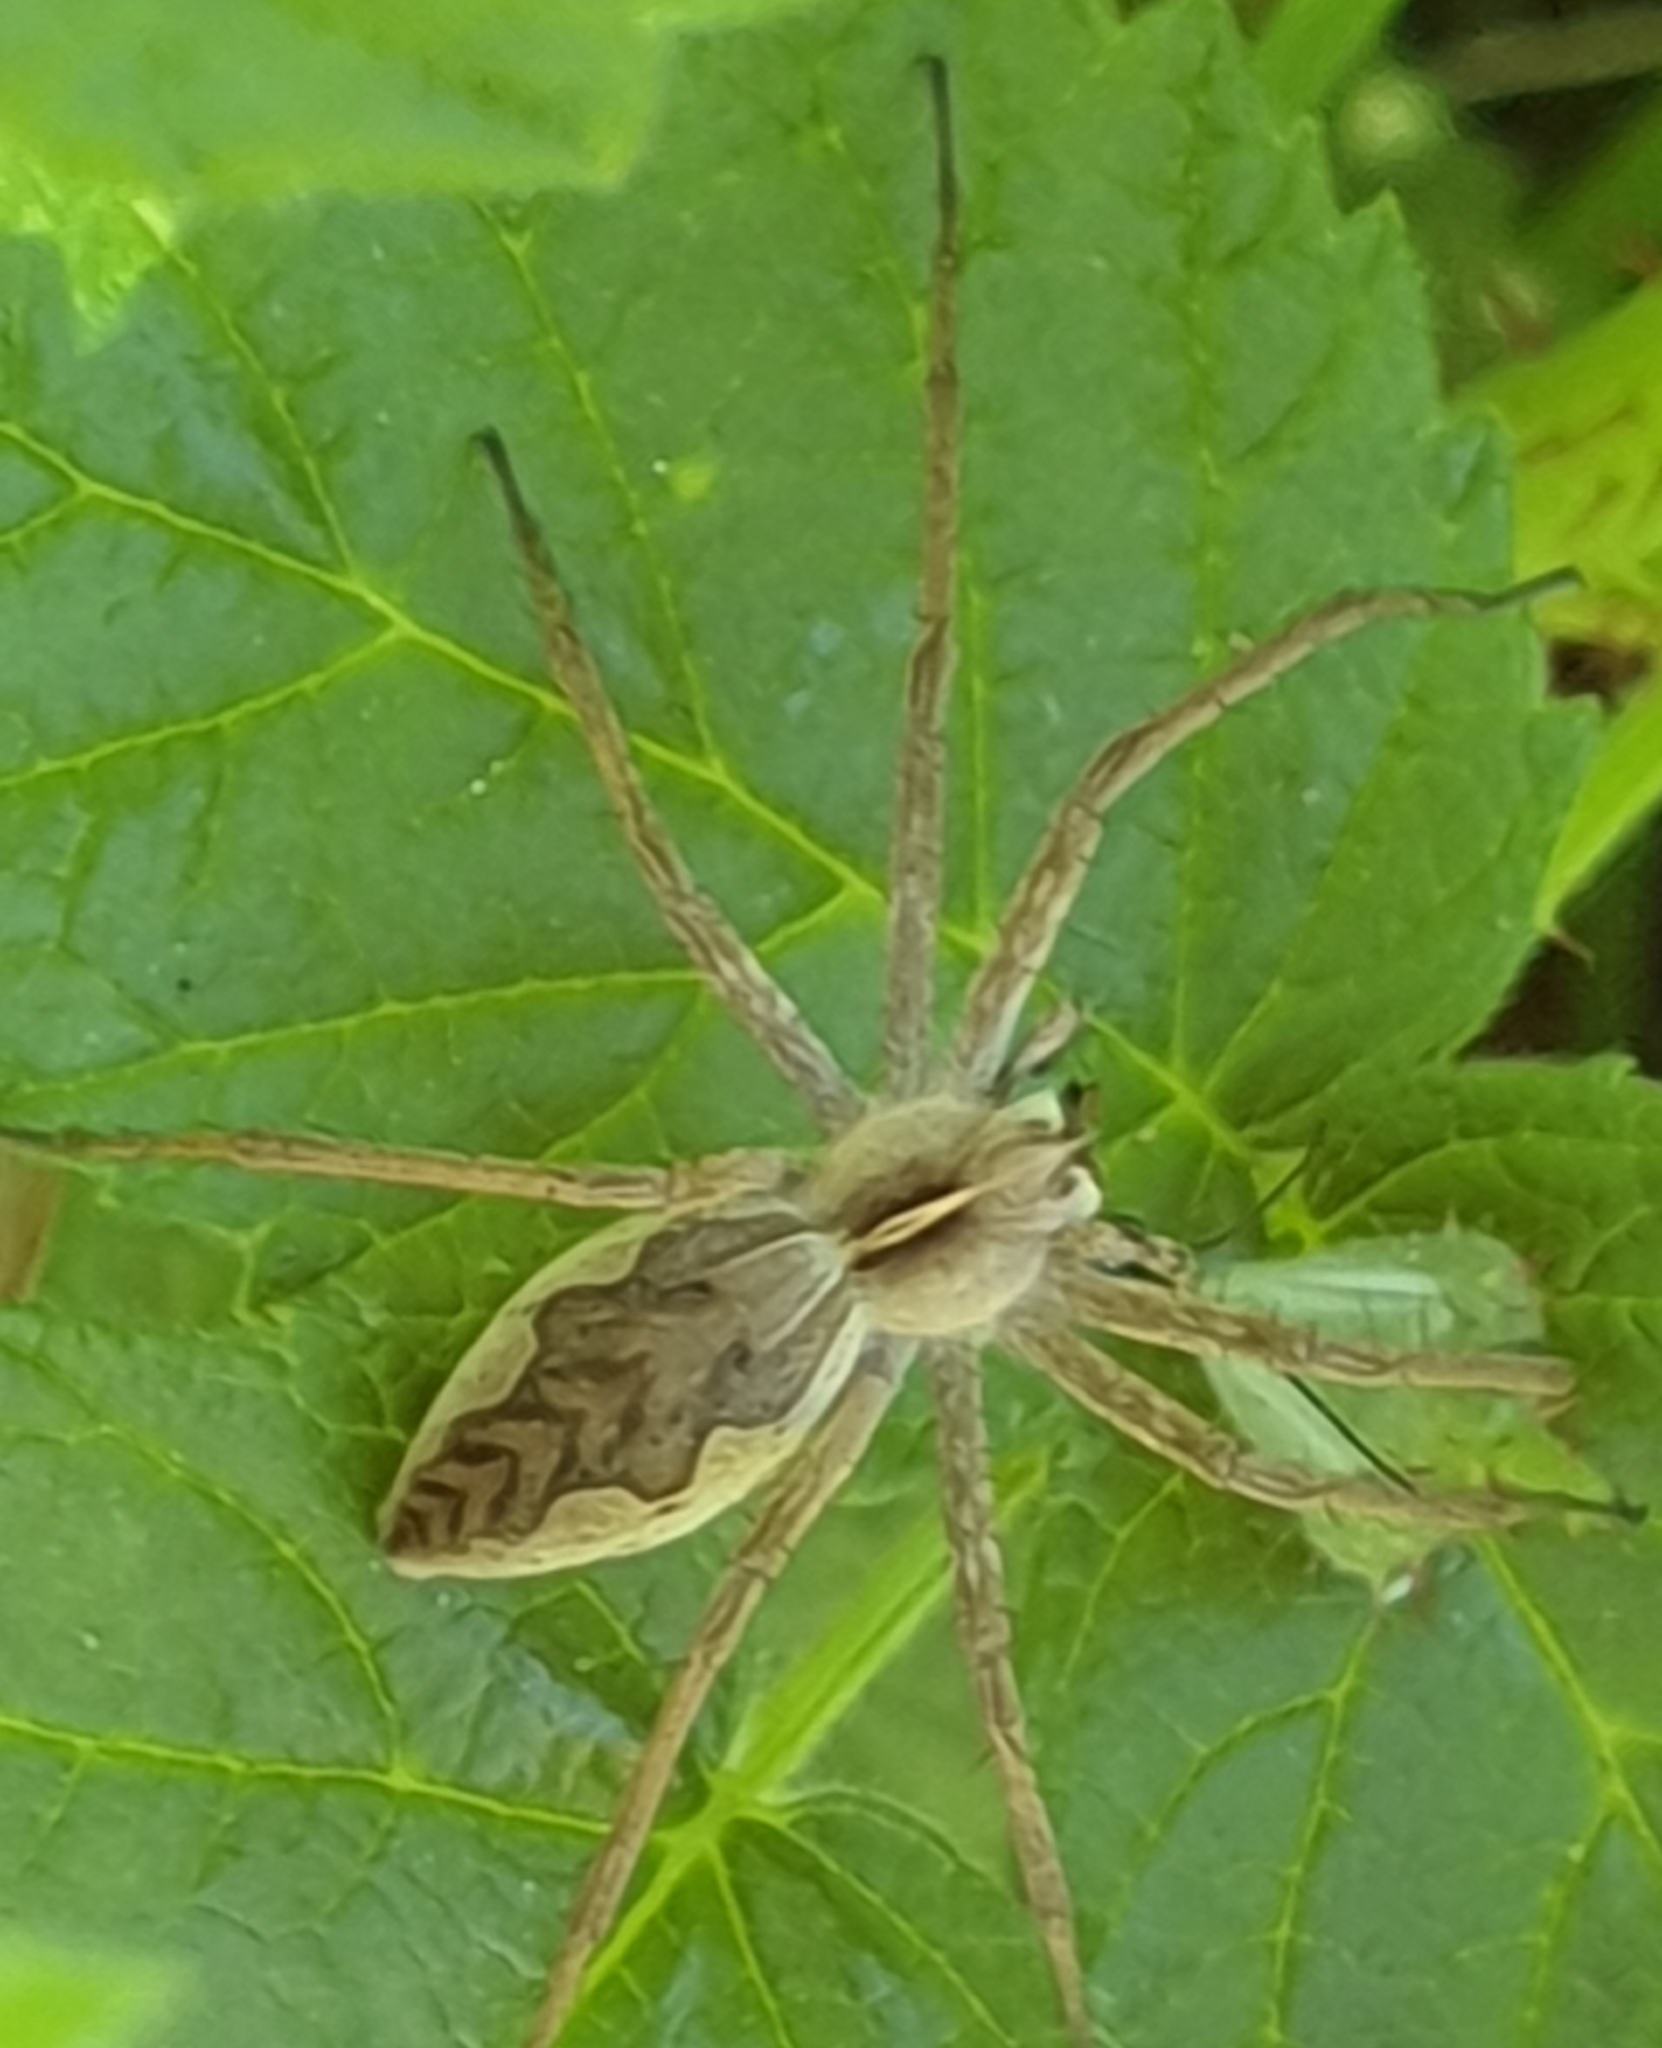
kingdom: Animalia
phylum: Arthropoda
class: Arachnida
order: Araneae
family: Pisauridae
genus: Pisaura
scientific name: Pisaura mirabilis
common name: Tent spider
